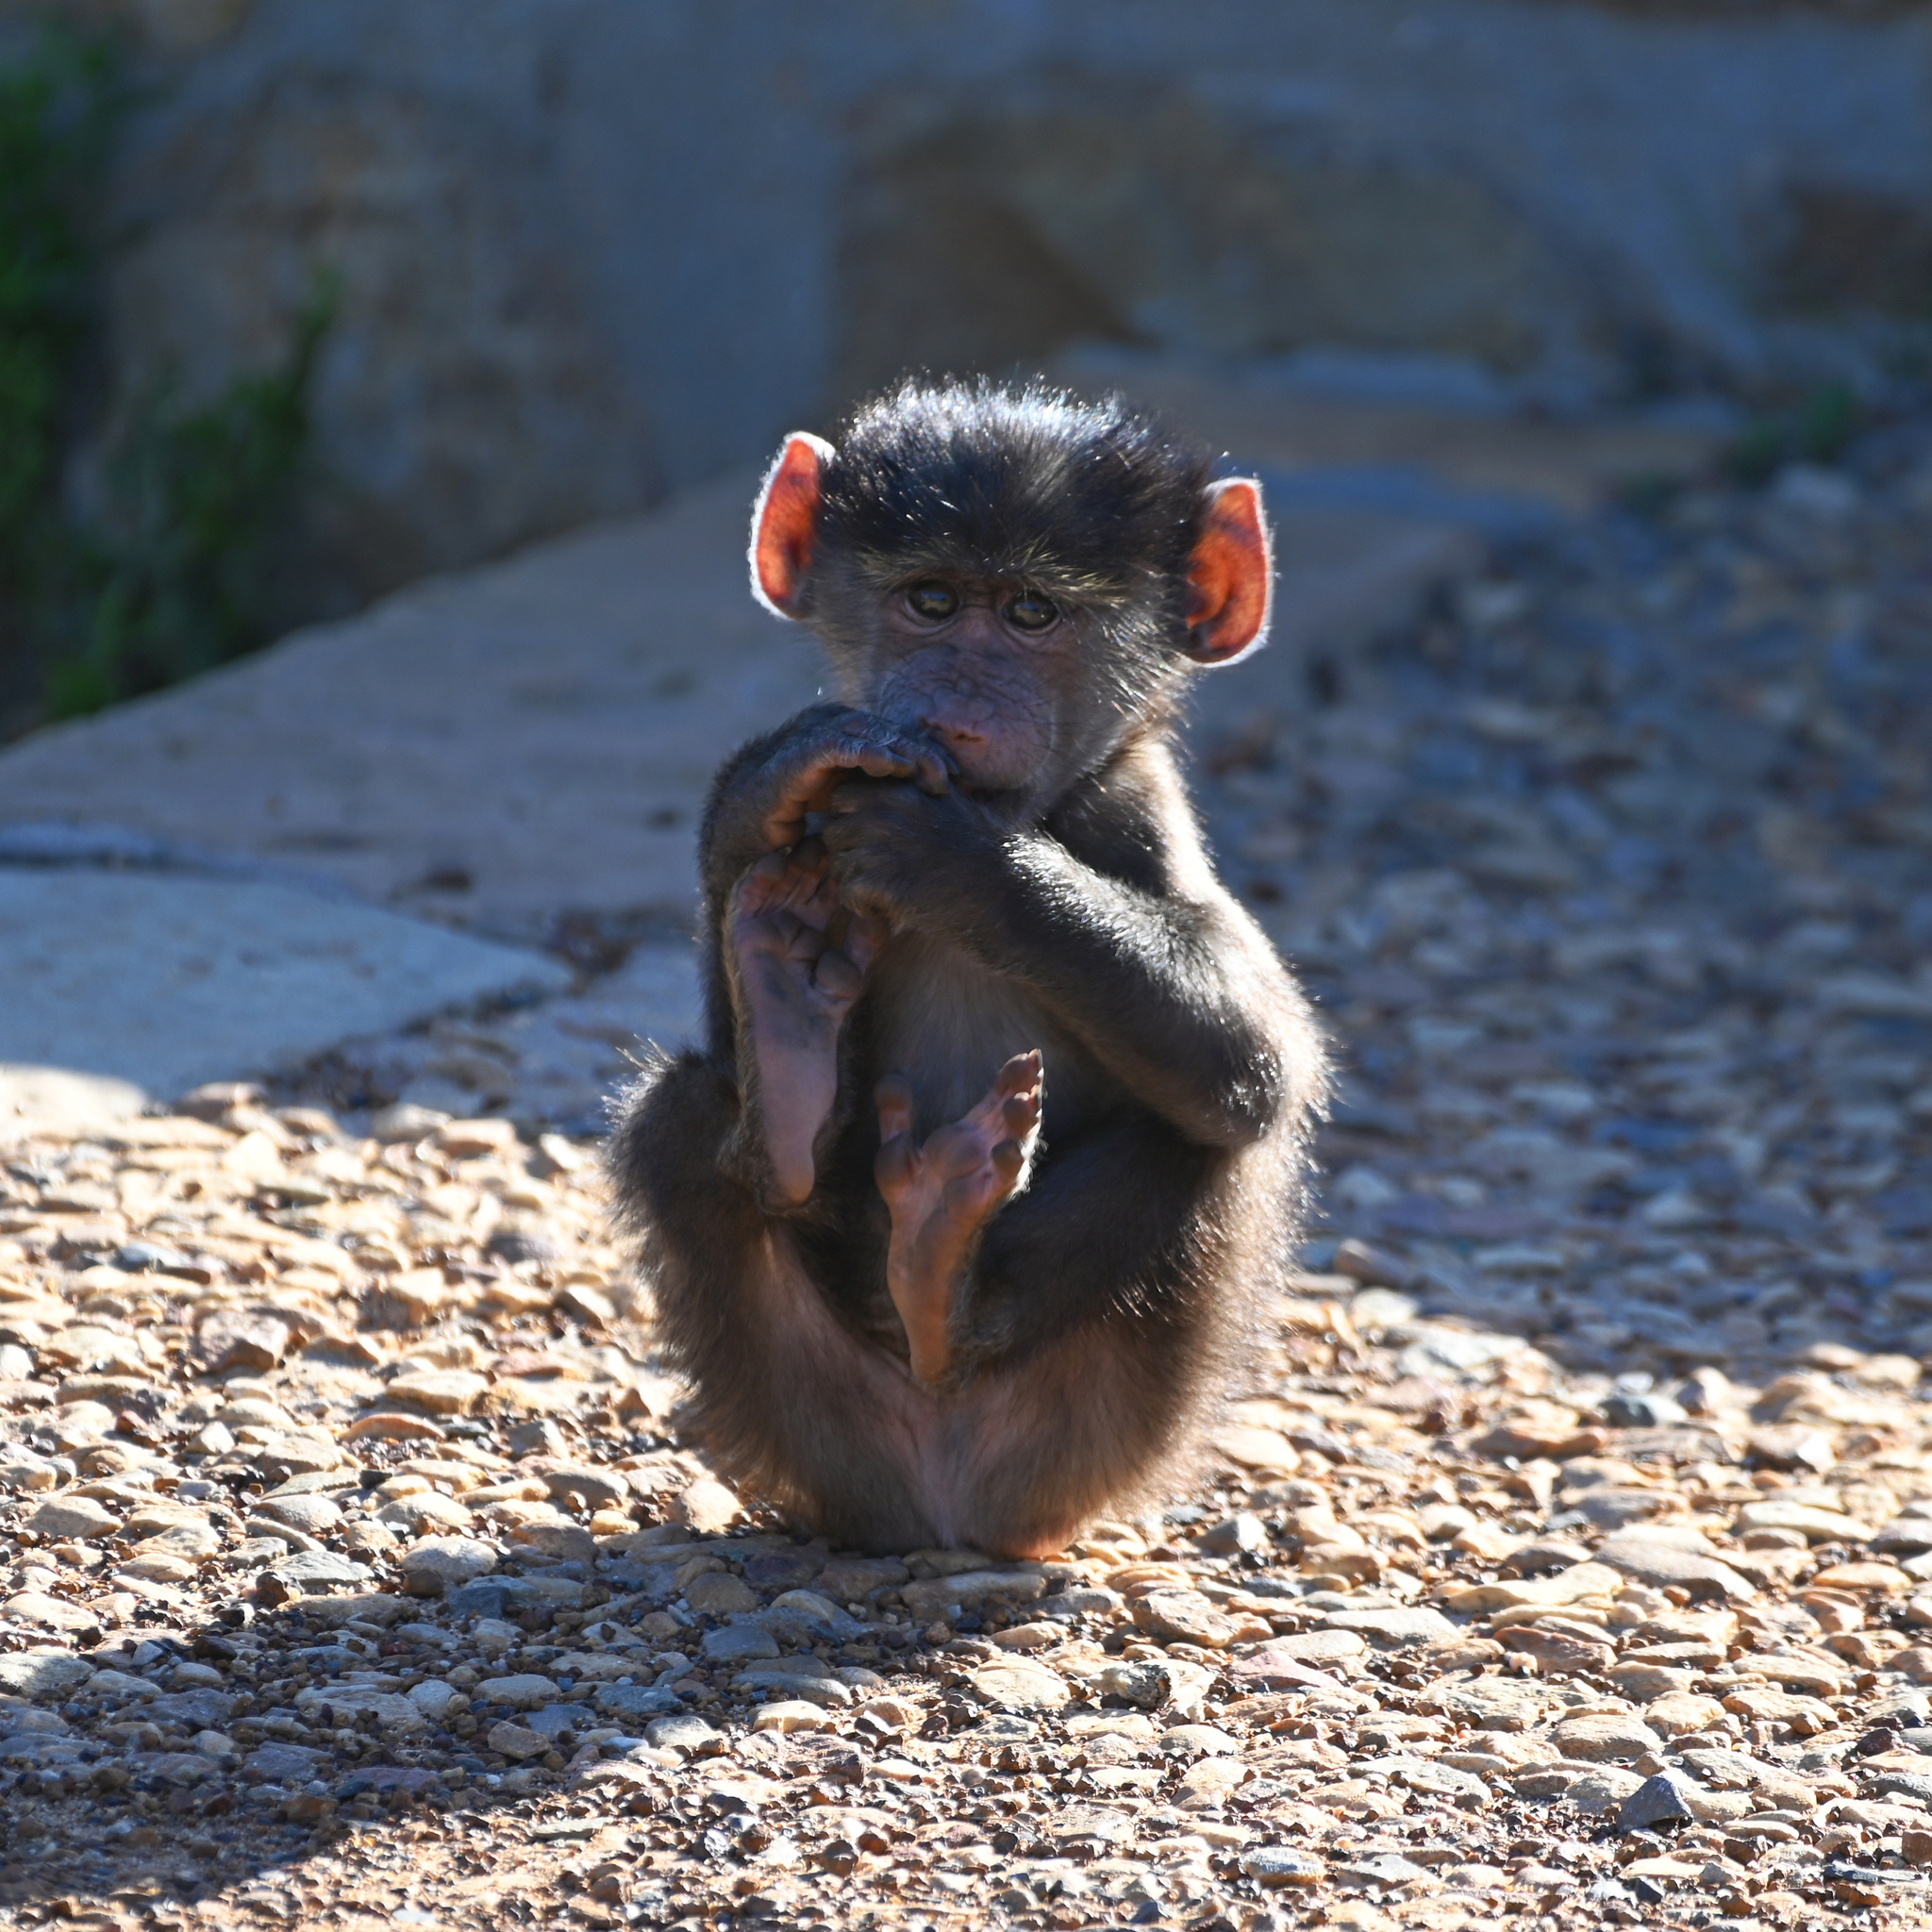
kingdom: Animalia
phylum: Chordata
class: Mammalia
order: Primates
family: Cercopithecidae
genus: Papio
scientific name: Papio ursinus
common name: Chacma baboon
